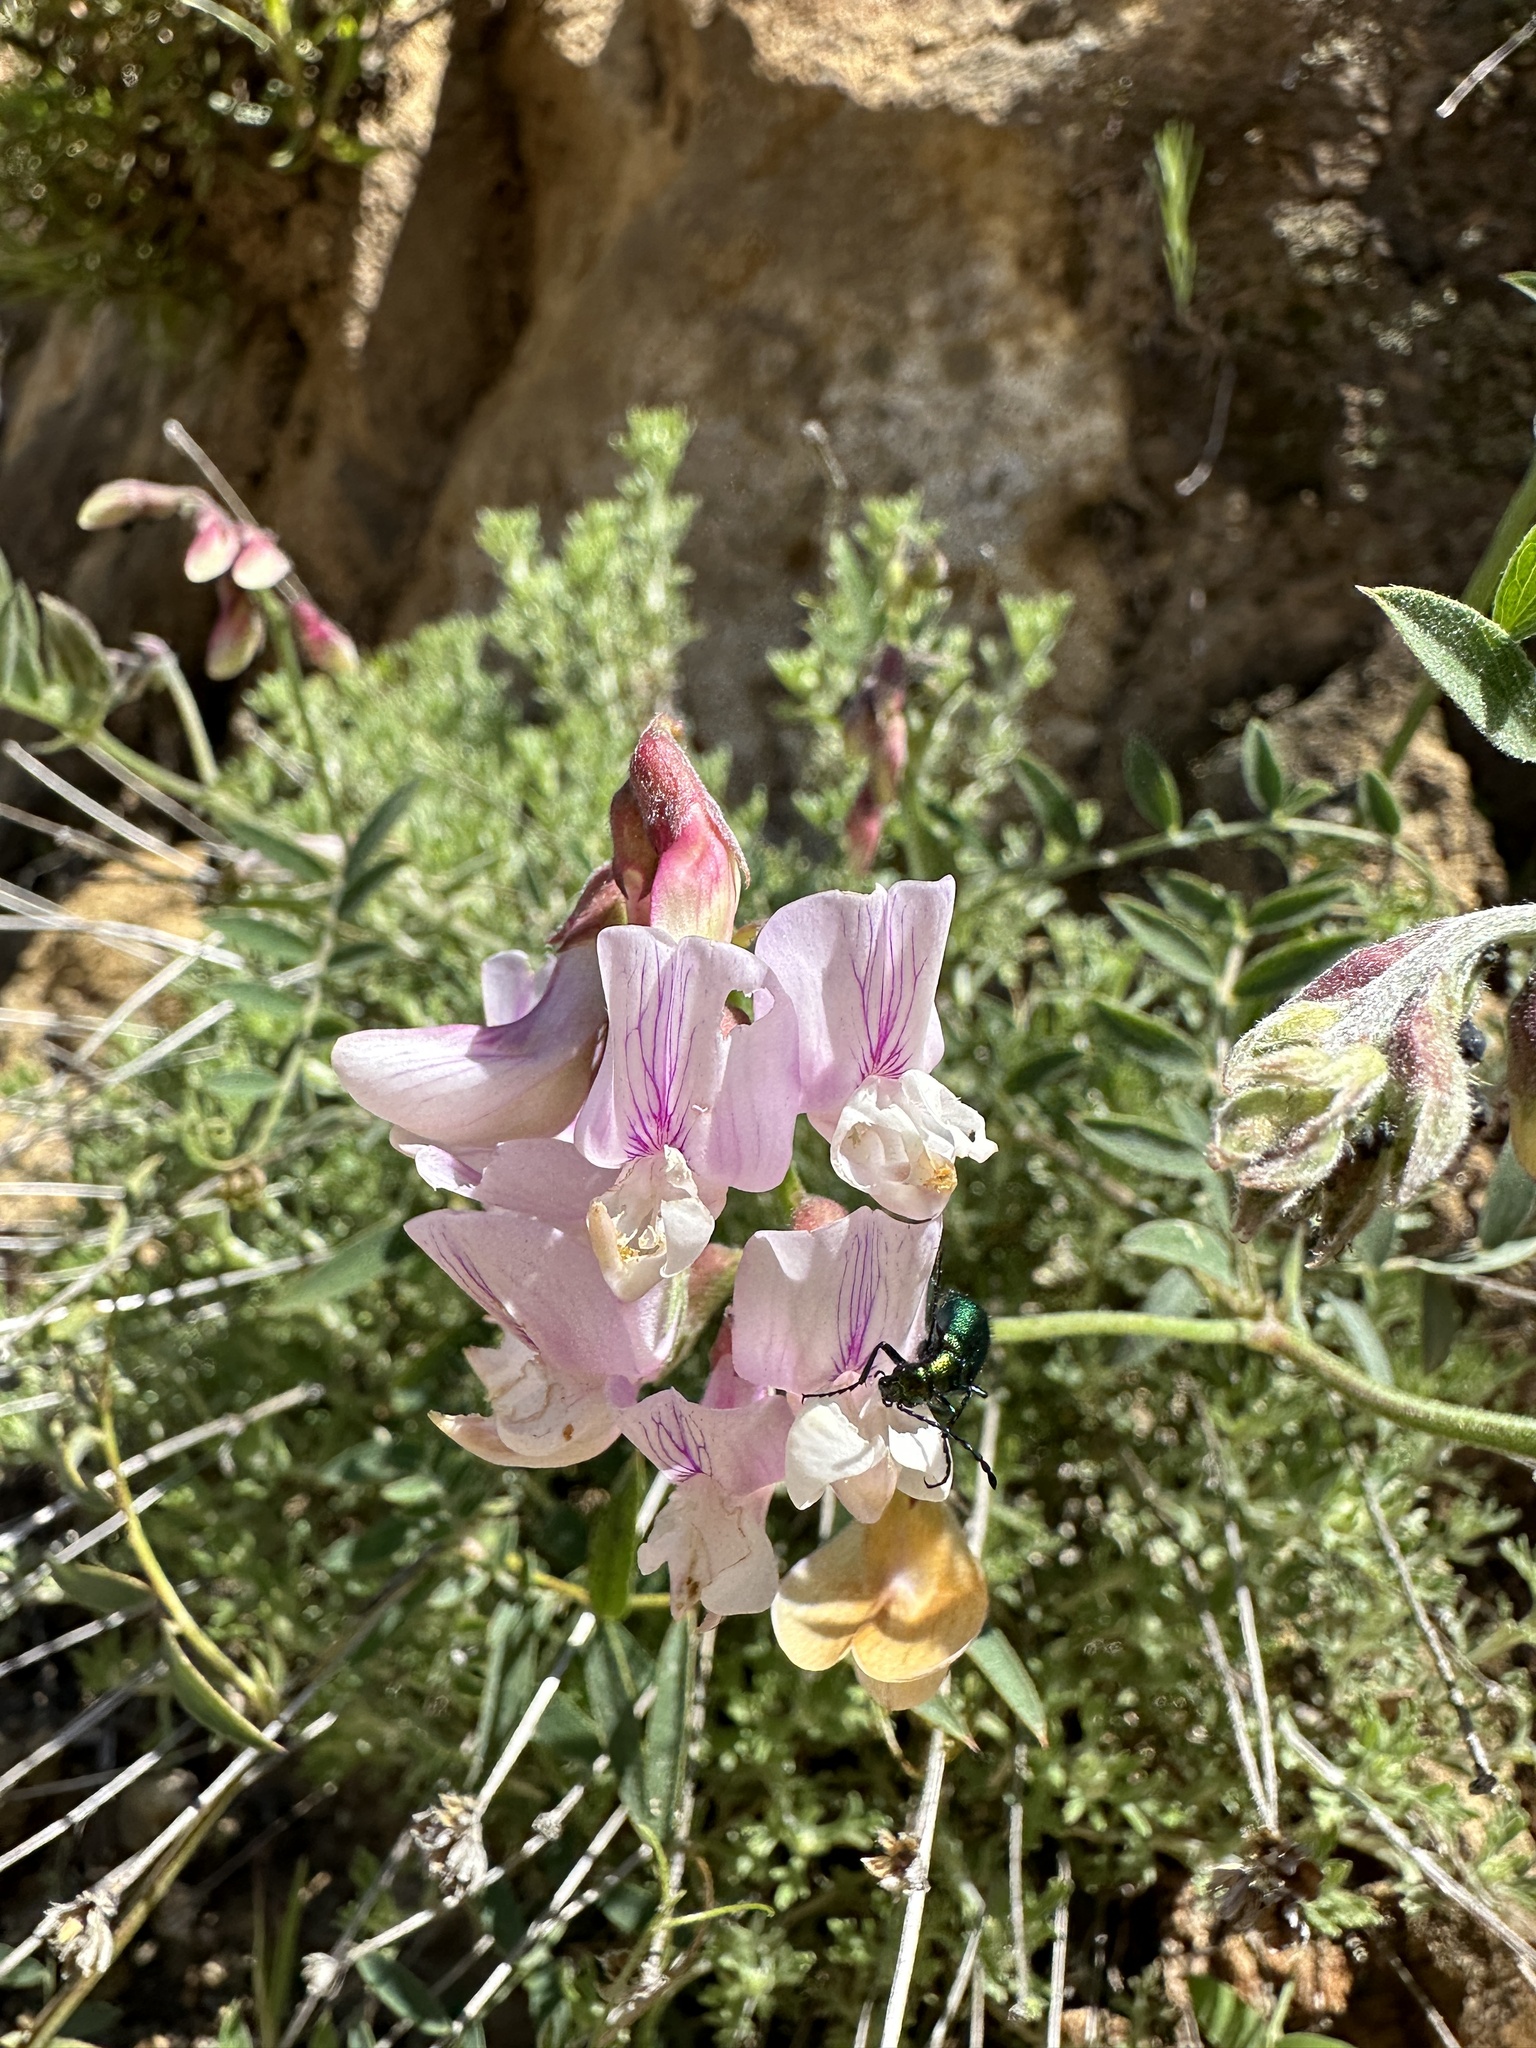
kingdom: Plantae
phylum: Tracheophyta
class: Magnoliopsida
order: Fabales
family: Fabaceae
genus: Lathyrus
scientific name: Lathyrus vestitus
